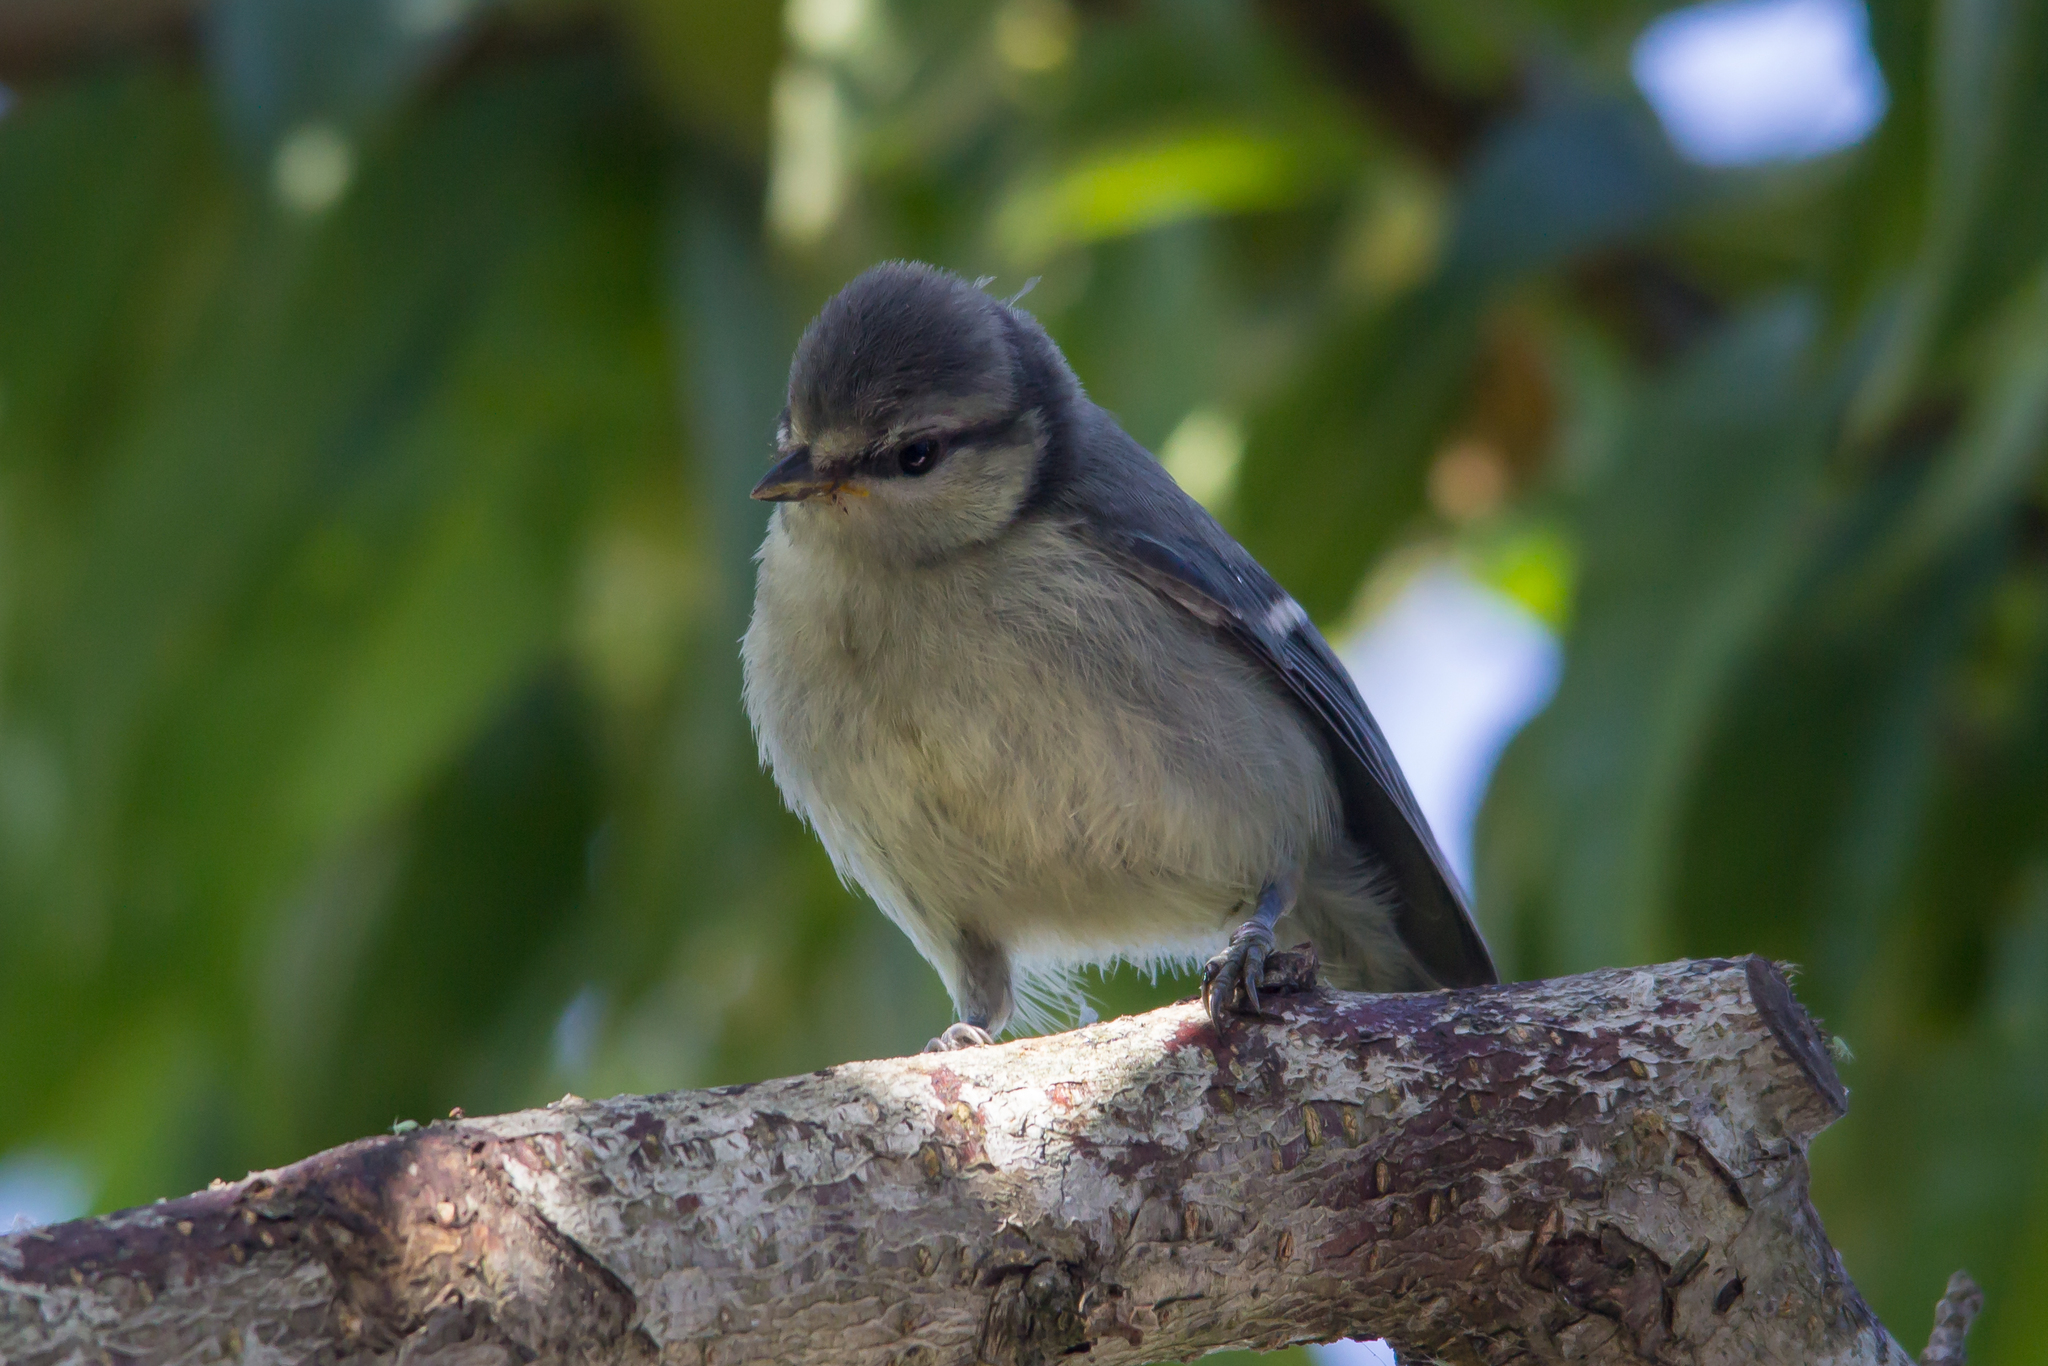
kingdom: Animalia
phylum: Chordata
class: Aves
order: Passeriformes
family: Paridae
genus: Cyanistes
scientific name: Cyanistes caeruleus
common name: Eurasian blue tit
